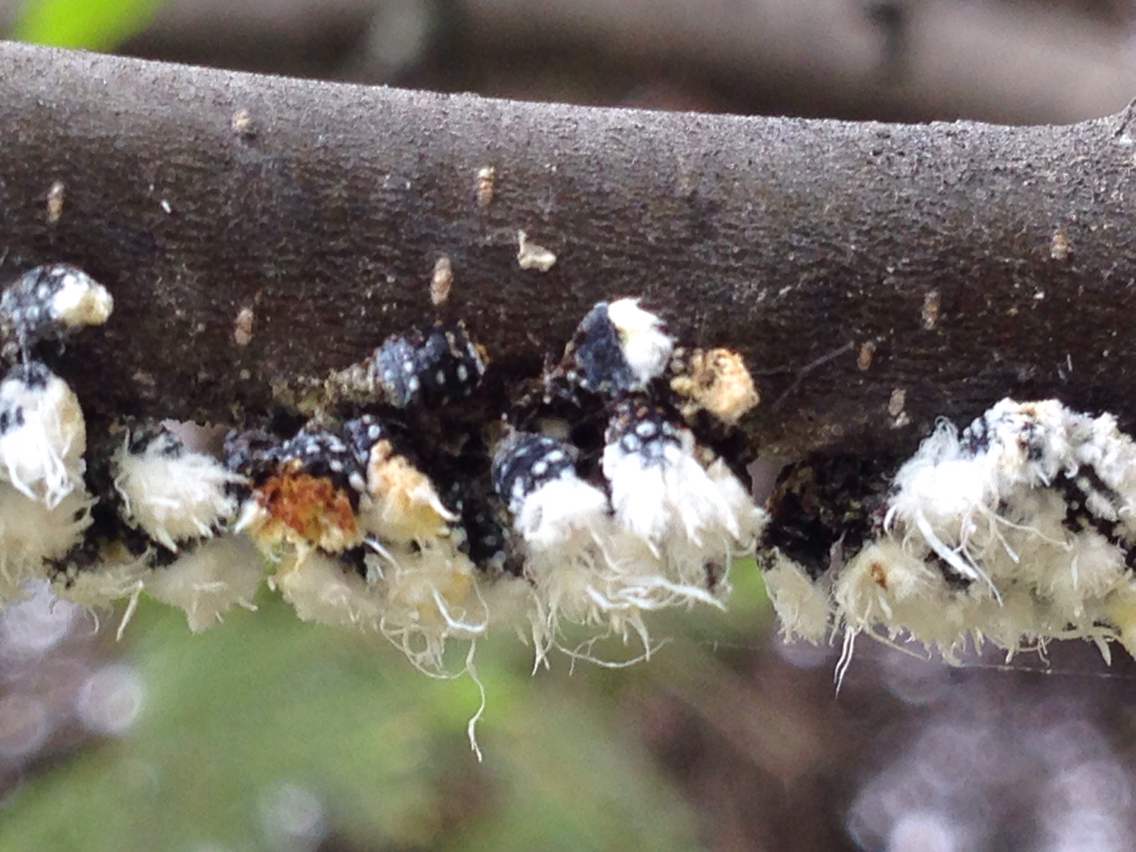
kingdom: Animalia
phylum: Arthropoda
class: Insecta
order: Hemiptera
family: Aphididae
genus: Prociphilus
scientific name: Prociphilus tessellatus
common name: Woolly alder aphid
